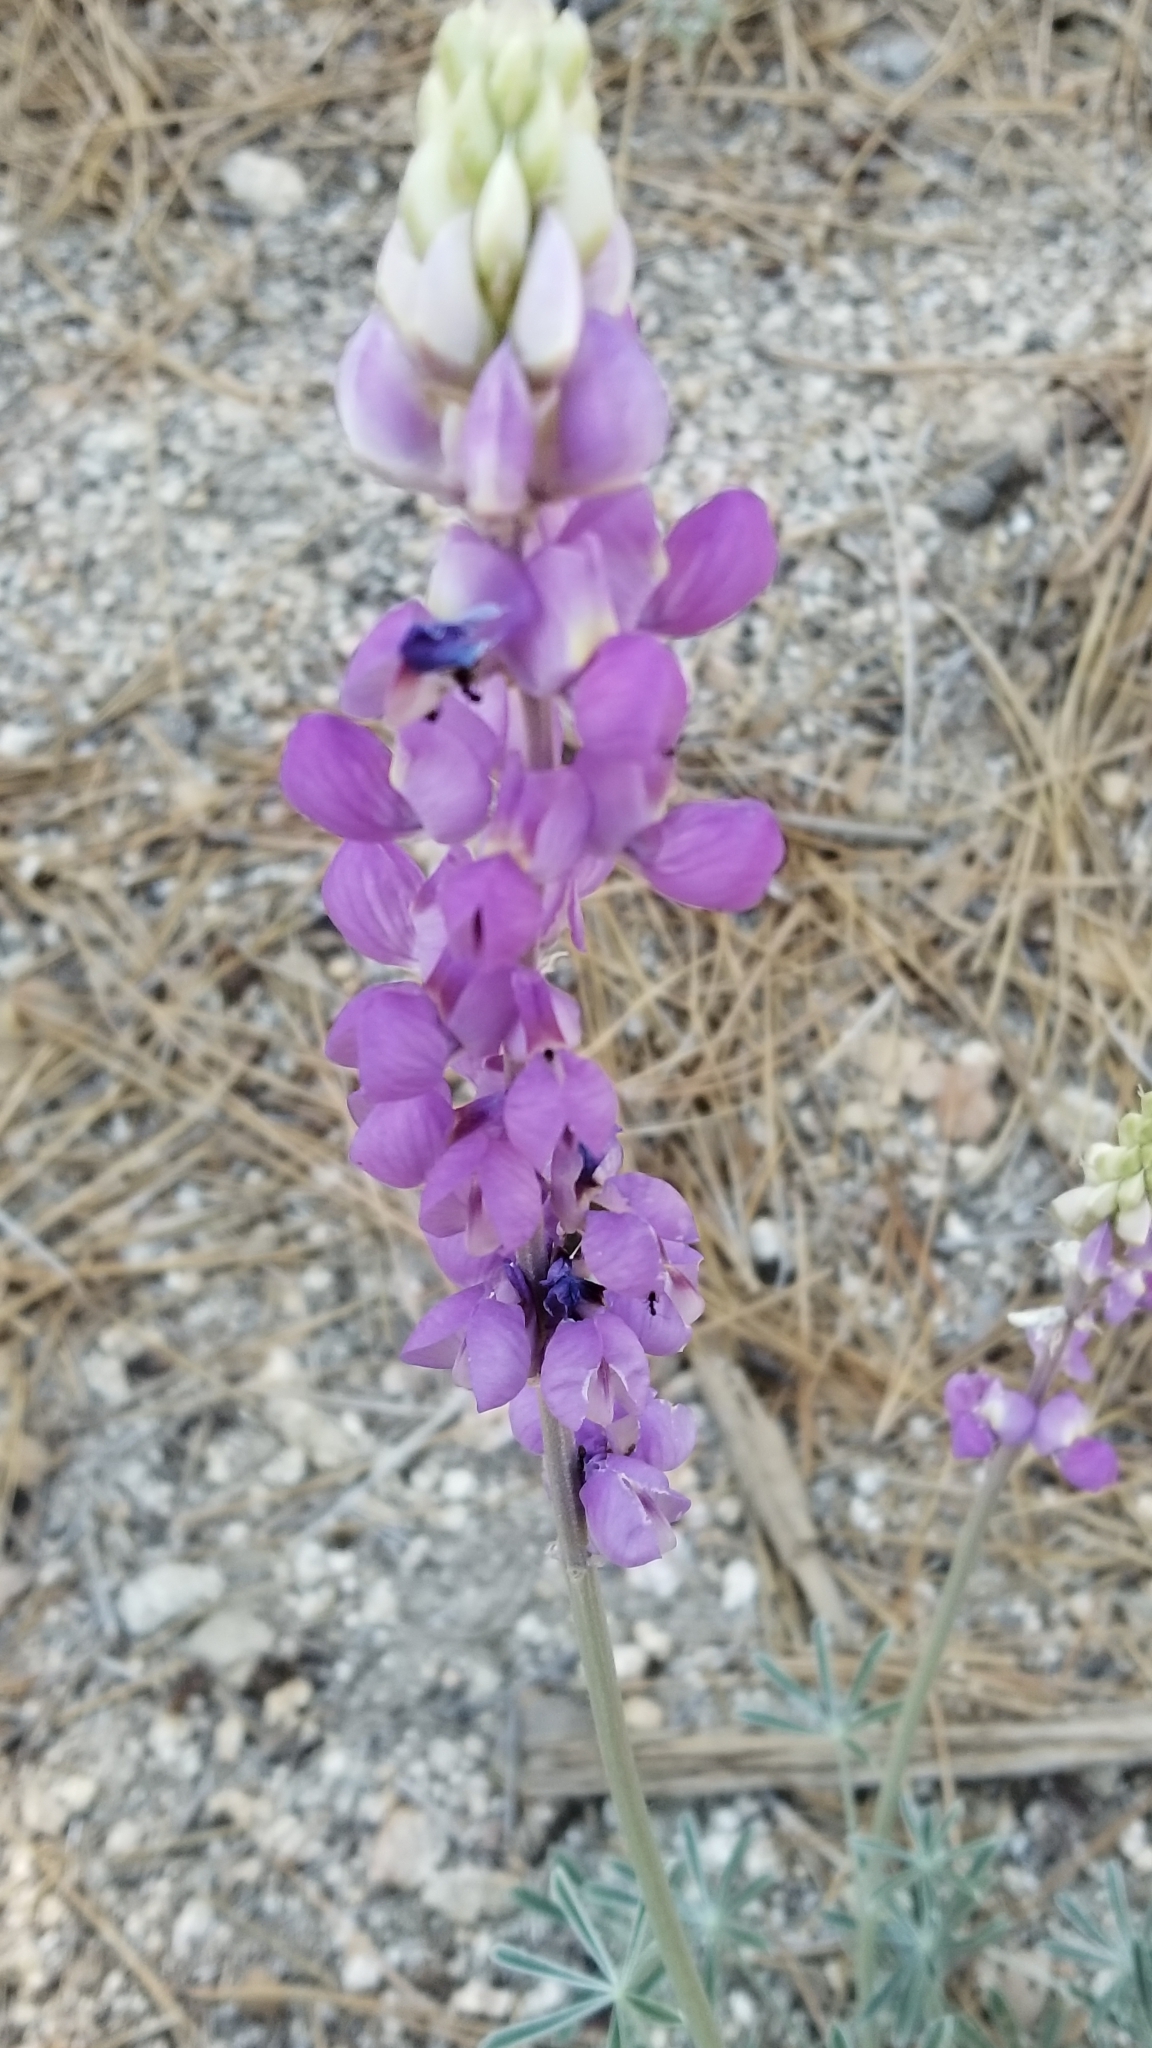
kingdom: Plantae
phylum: Tracheophyta
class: Magnoliopsida
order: Fabales
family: Fabaceae
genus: Lupinus
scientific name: Lupinus excubitus
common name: Grape soda lupine
